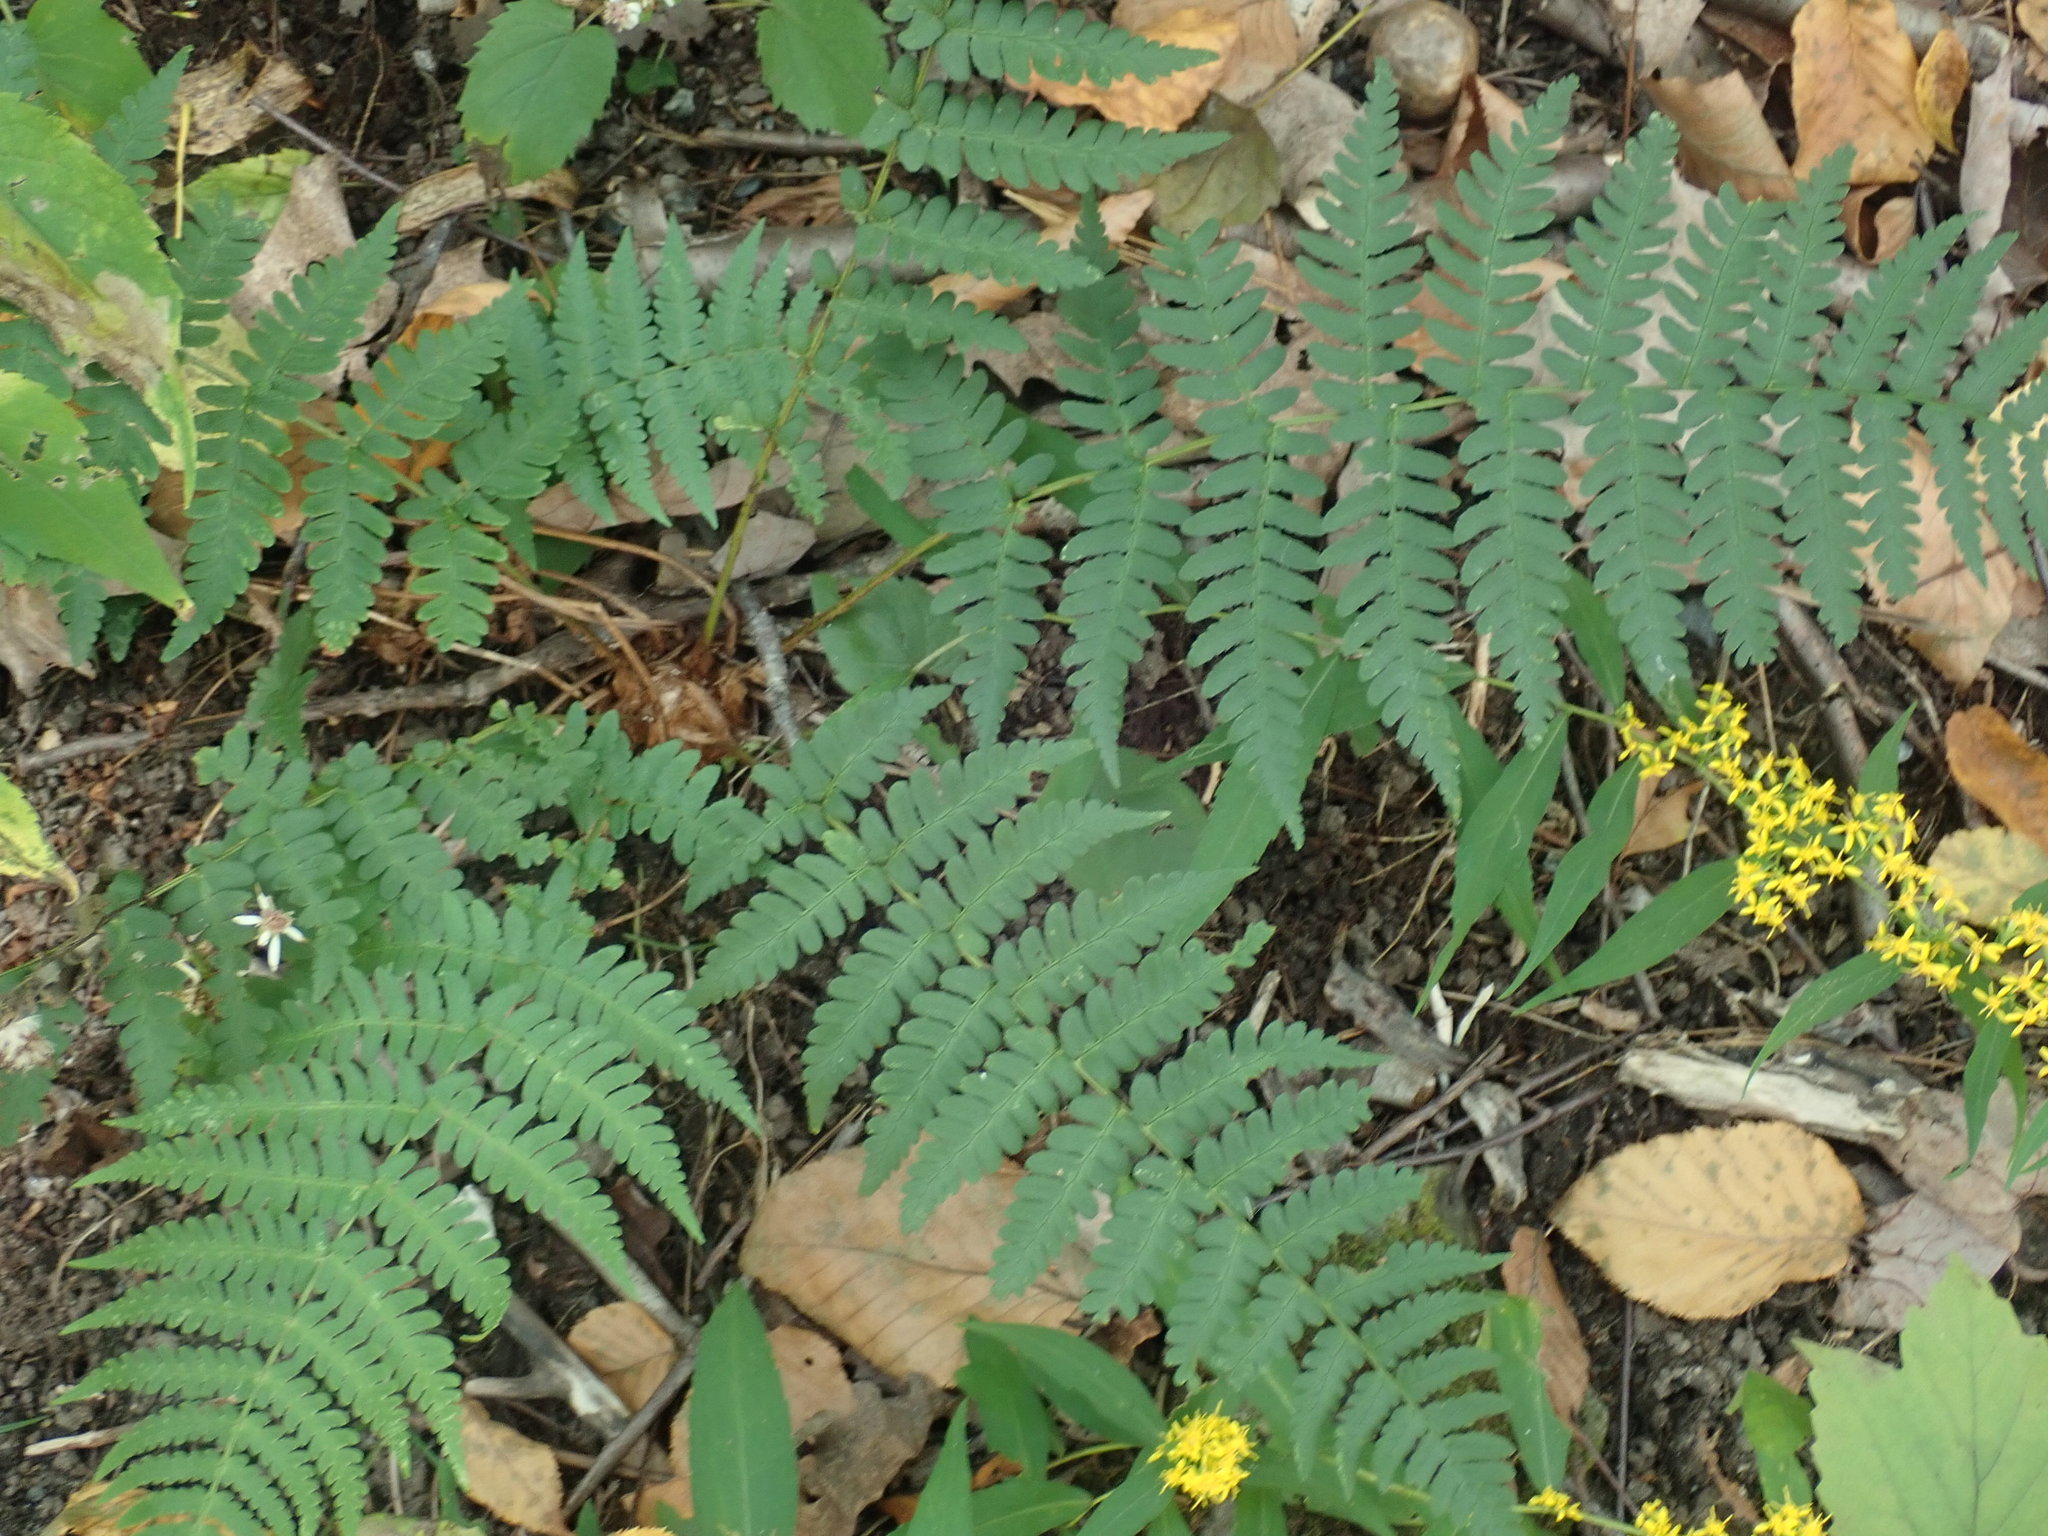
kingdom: Plantae
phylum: Tracheophyta
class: Polypodiopsida
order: Polypodiales
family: Dryopteridaceae
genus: Dryopteris
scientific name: Dryopteris marginalis
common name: Marginal wood fern
